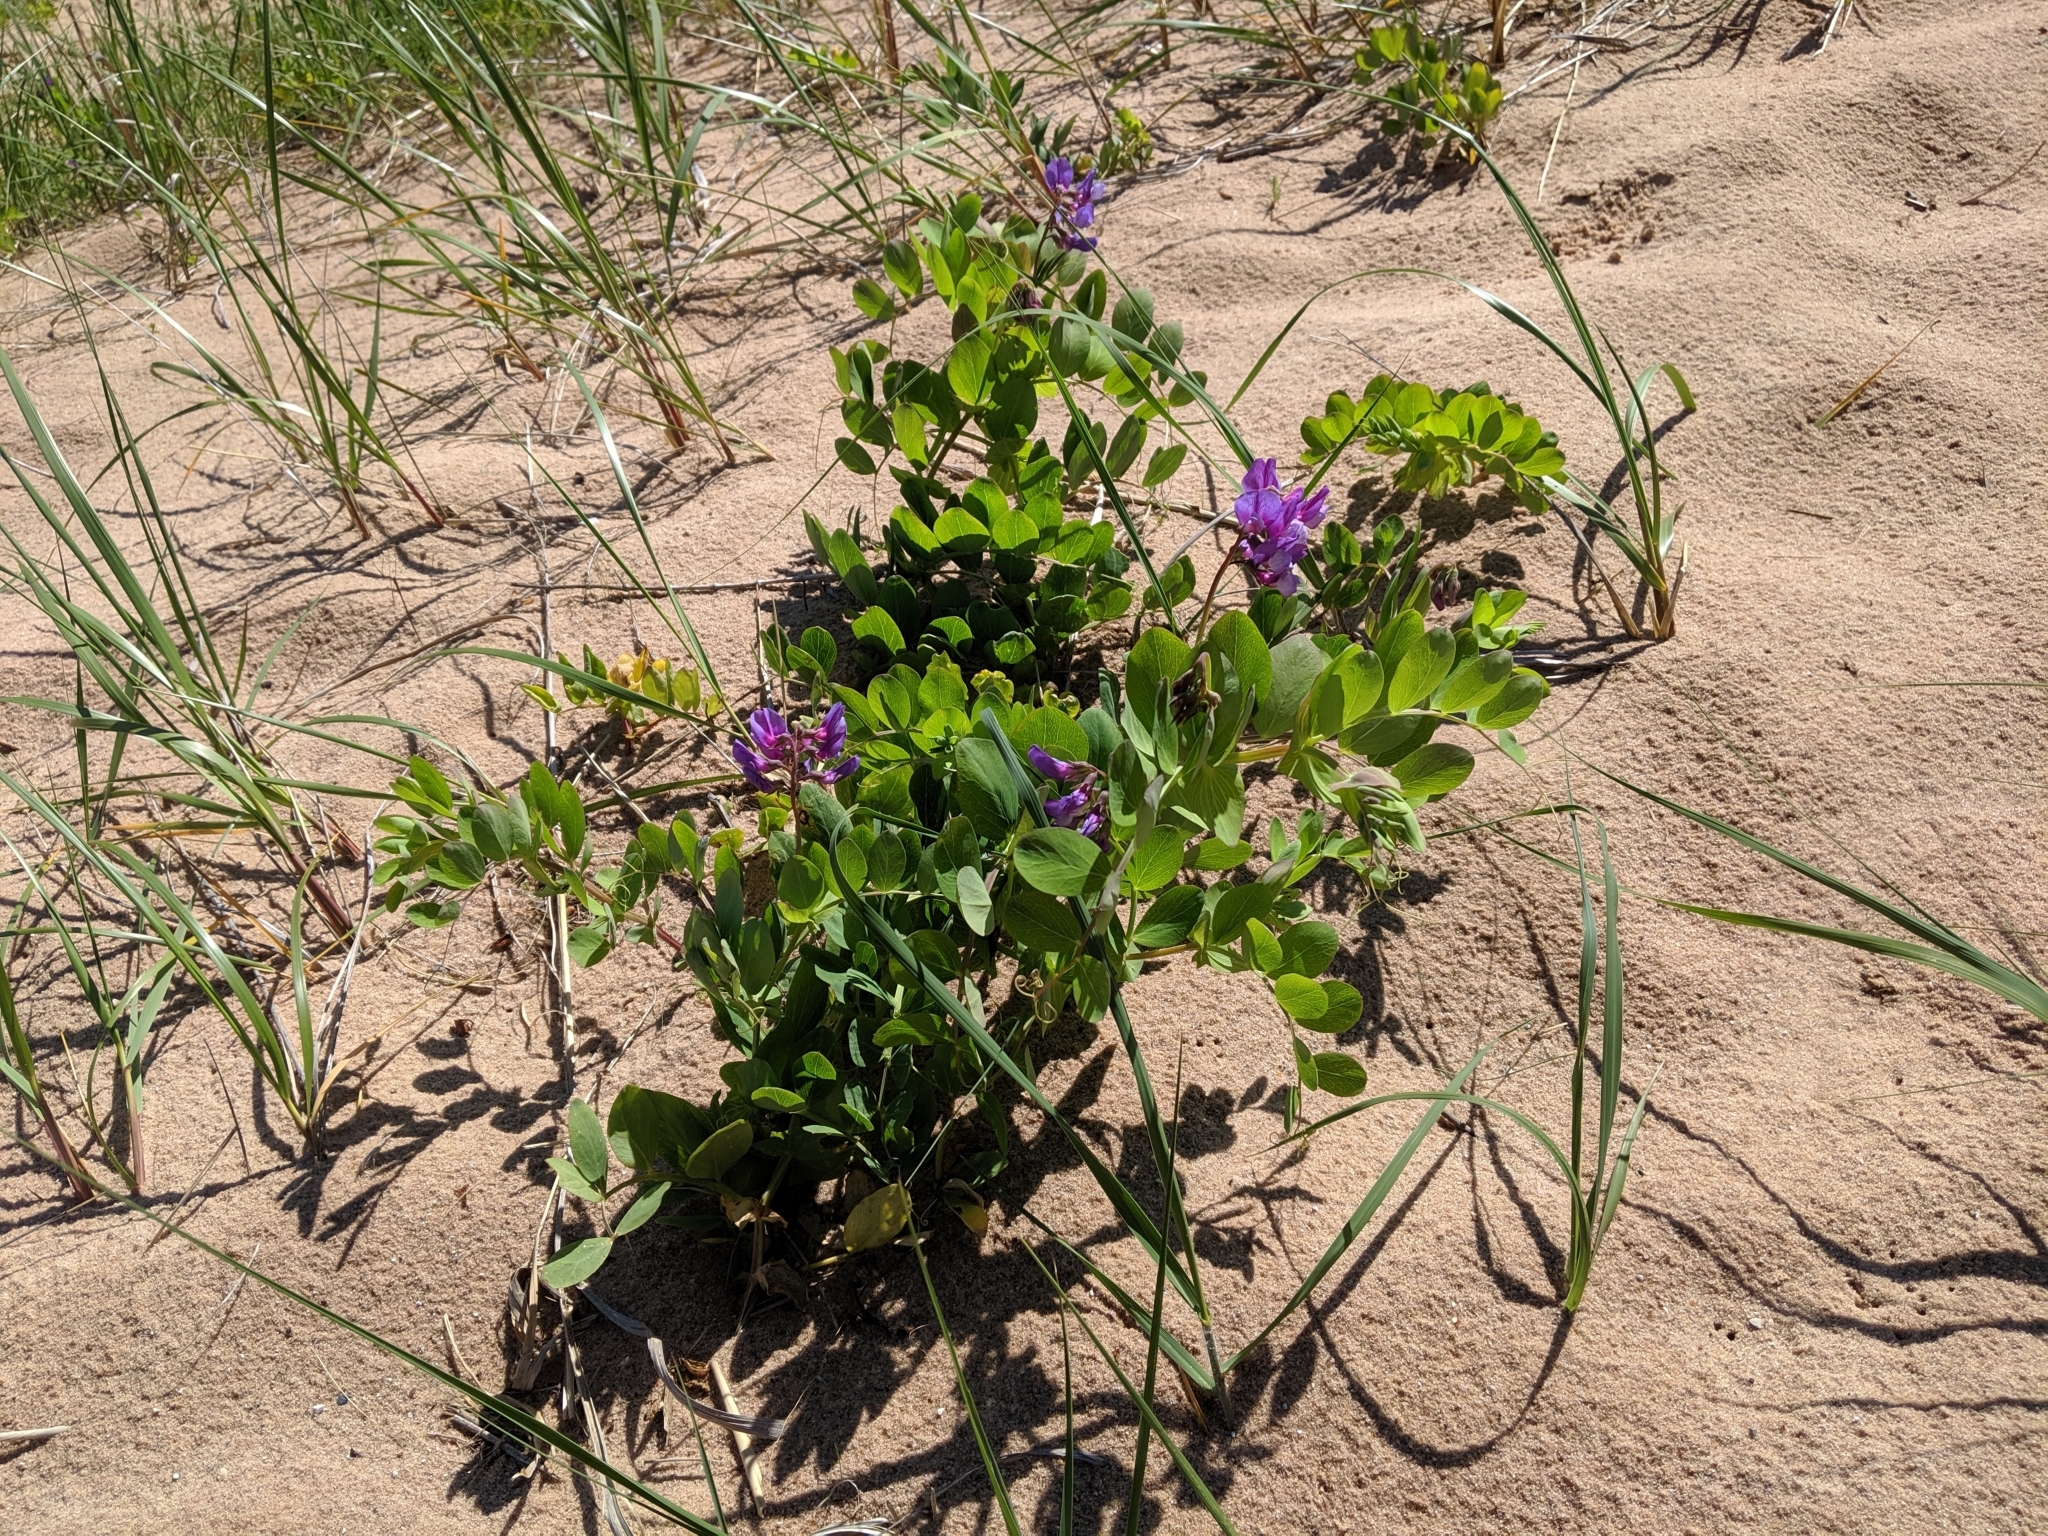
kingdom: Plantae
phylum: Tracheophyta
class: Magnoliopsida
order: Fabales
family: Fabaceae
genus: Lathyrus
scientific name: Lathyrus japonicus
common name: Sea pea
